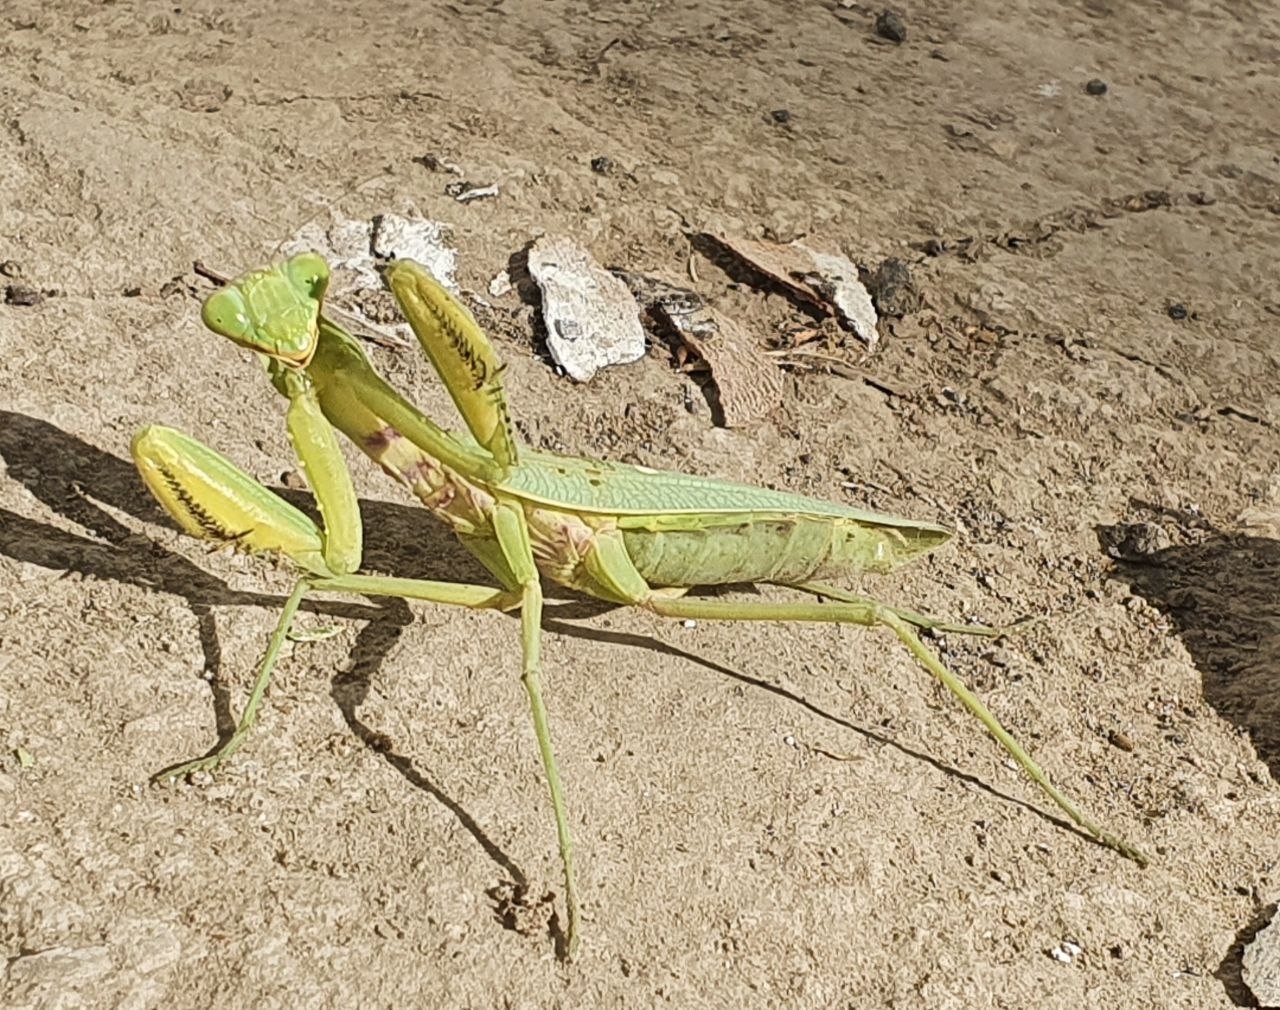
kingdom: Animalia
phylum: Arthropoda
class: Insecta
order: Mantodea
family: Mantidae
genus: Hierodula
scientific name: Hierodula tenuidentata
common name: Giant asian mantis
